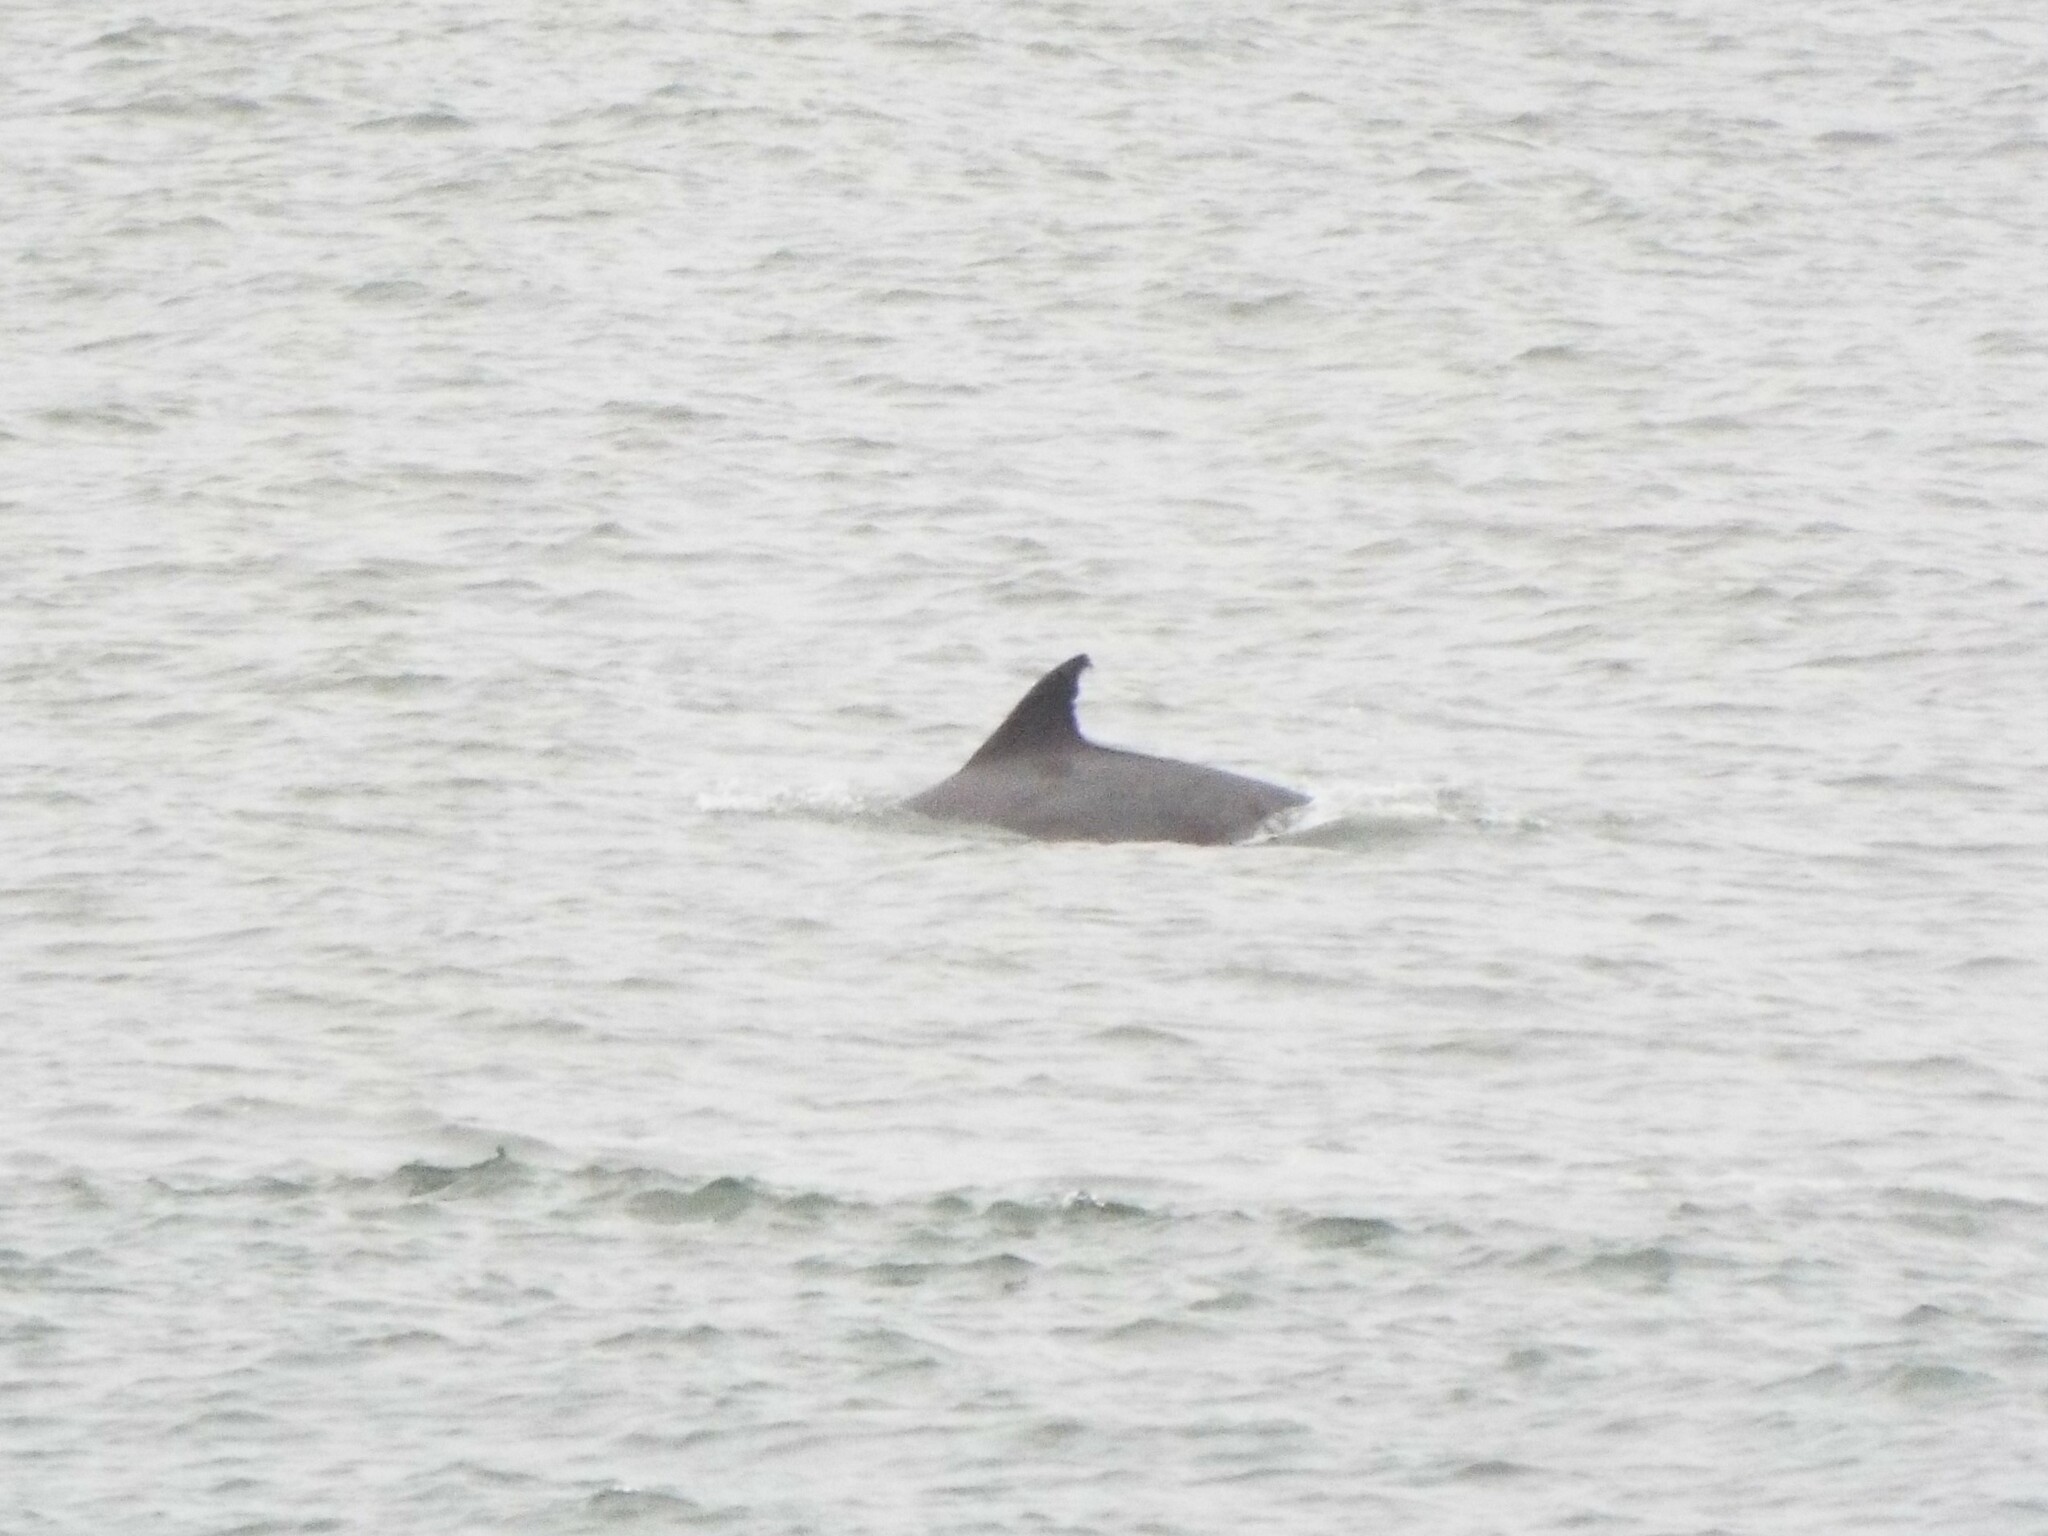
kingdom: Animalia
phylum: Chordata
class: Mammalia
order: Cetacea
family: Delphinidae
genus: Tursiops
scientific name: Tursiops truncatus
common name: Bottlenose dolphin
